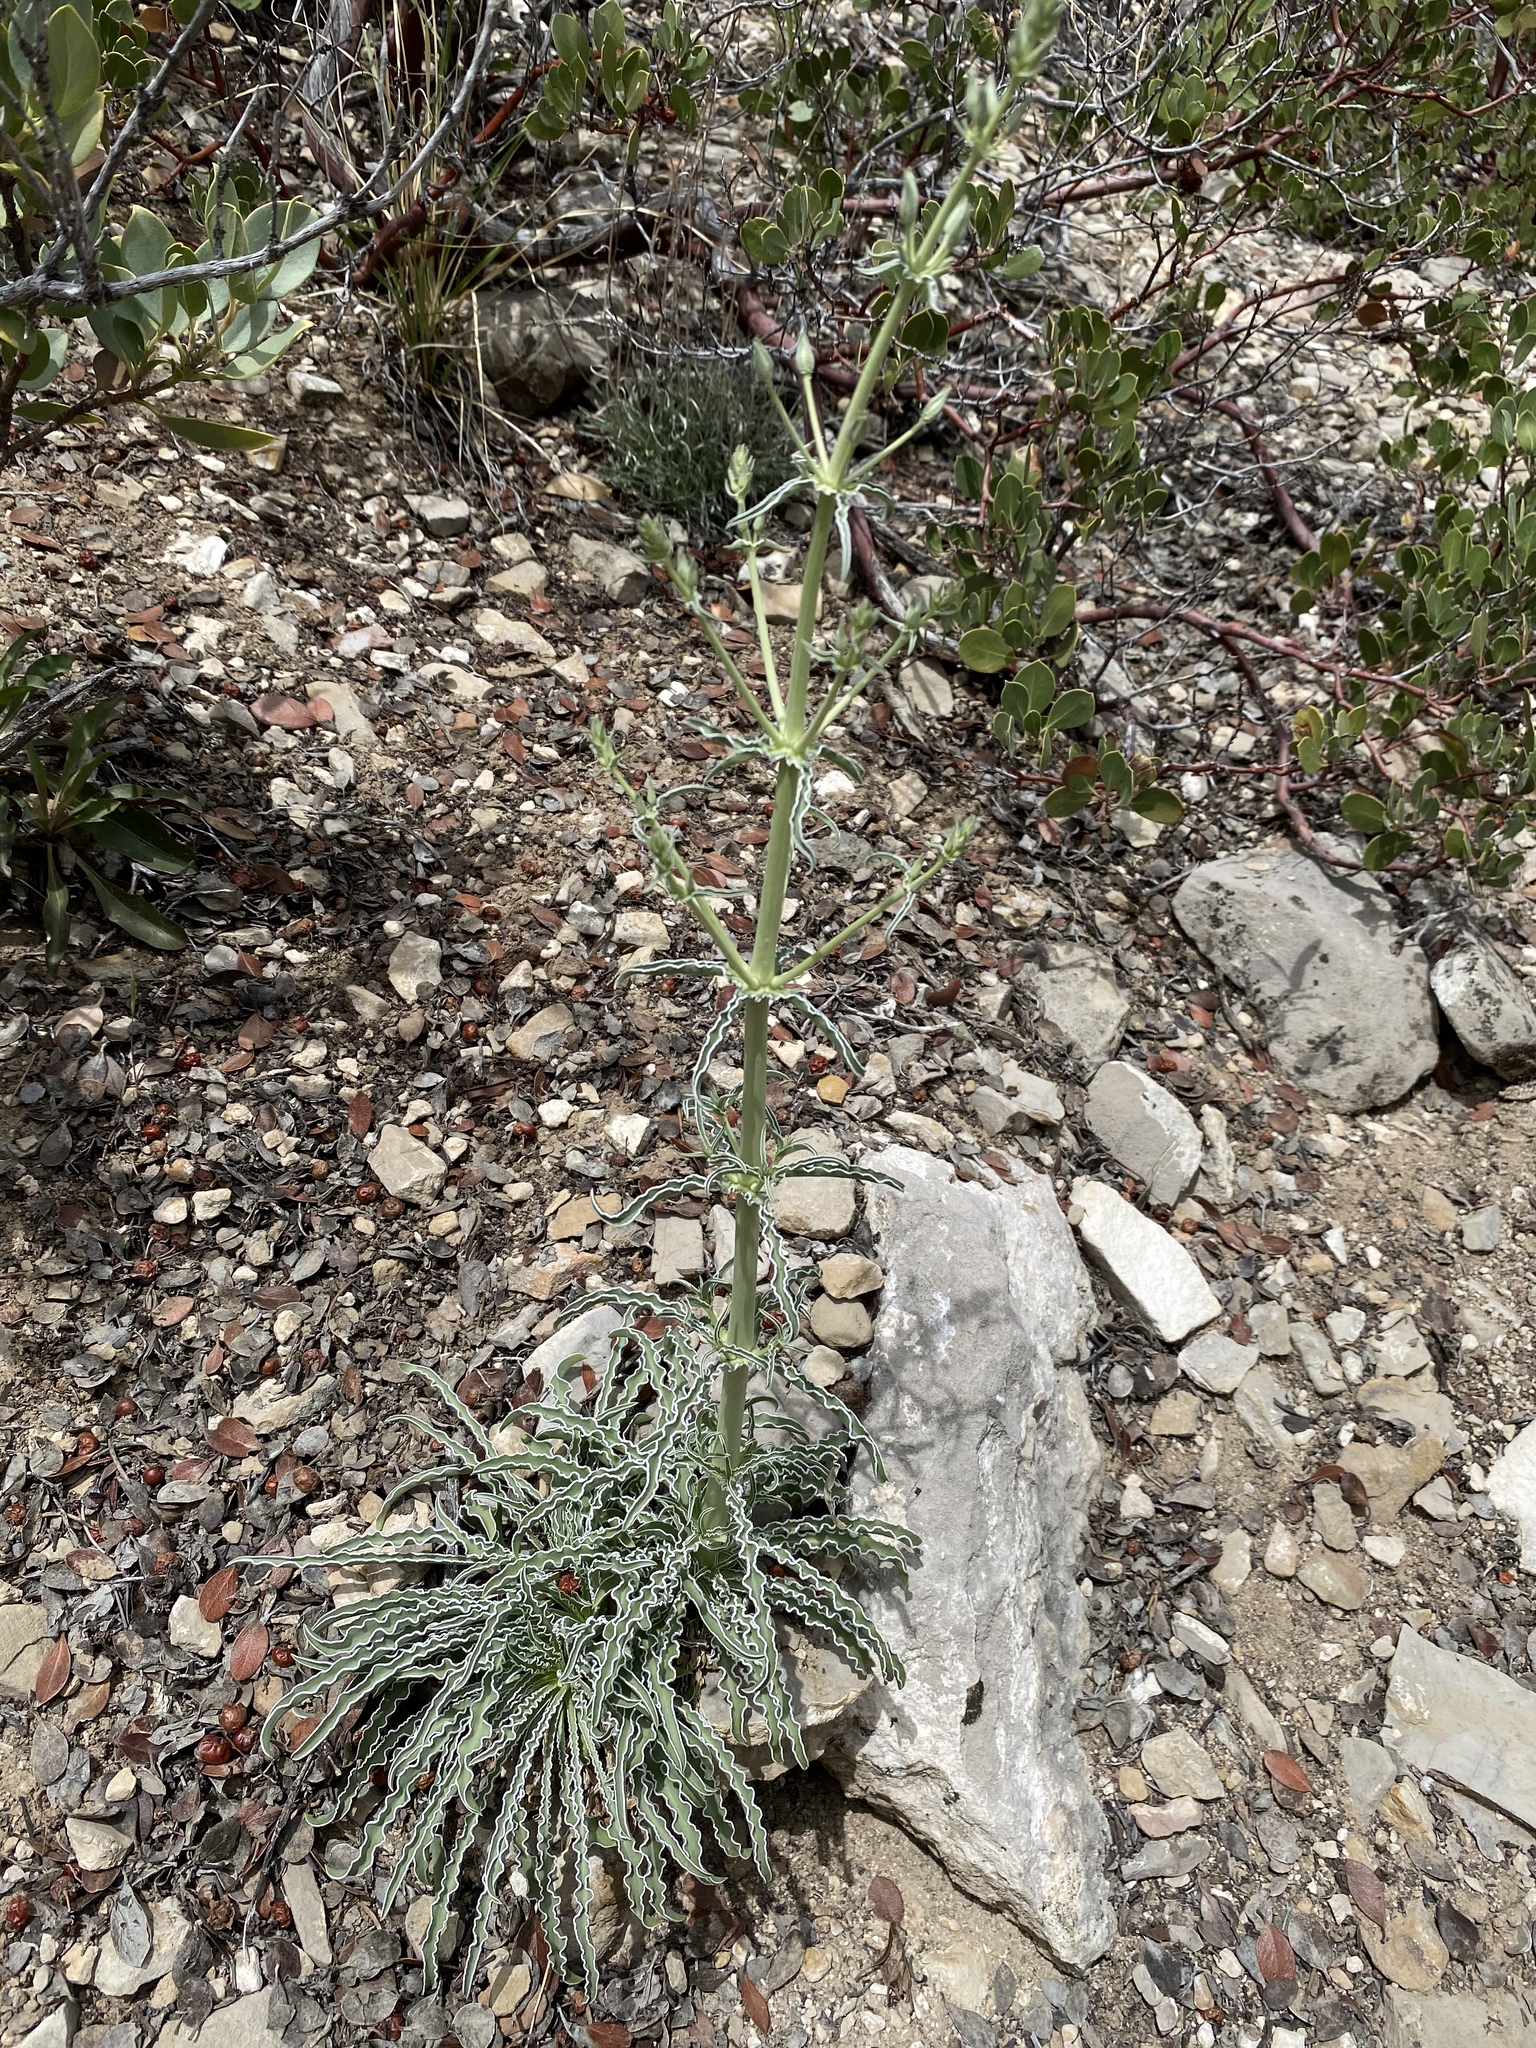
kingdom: Plantae
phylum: Tracheophyta
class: Magnoliopsida
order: Gentianales
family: Gentianaceae
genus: Frasera
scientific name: Frasera albomarginata
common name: Desert frasera
